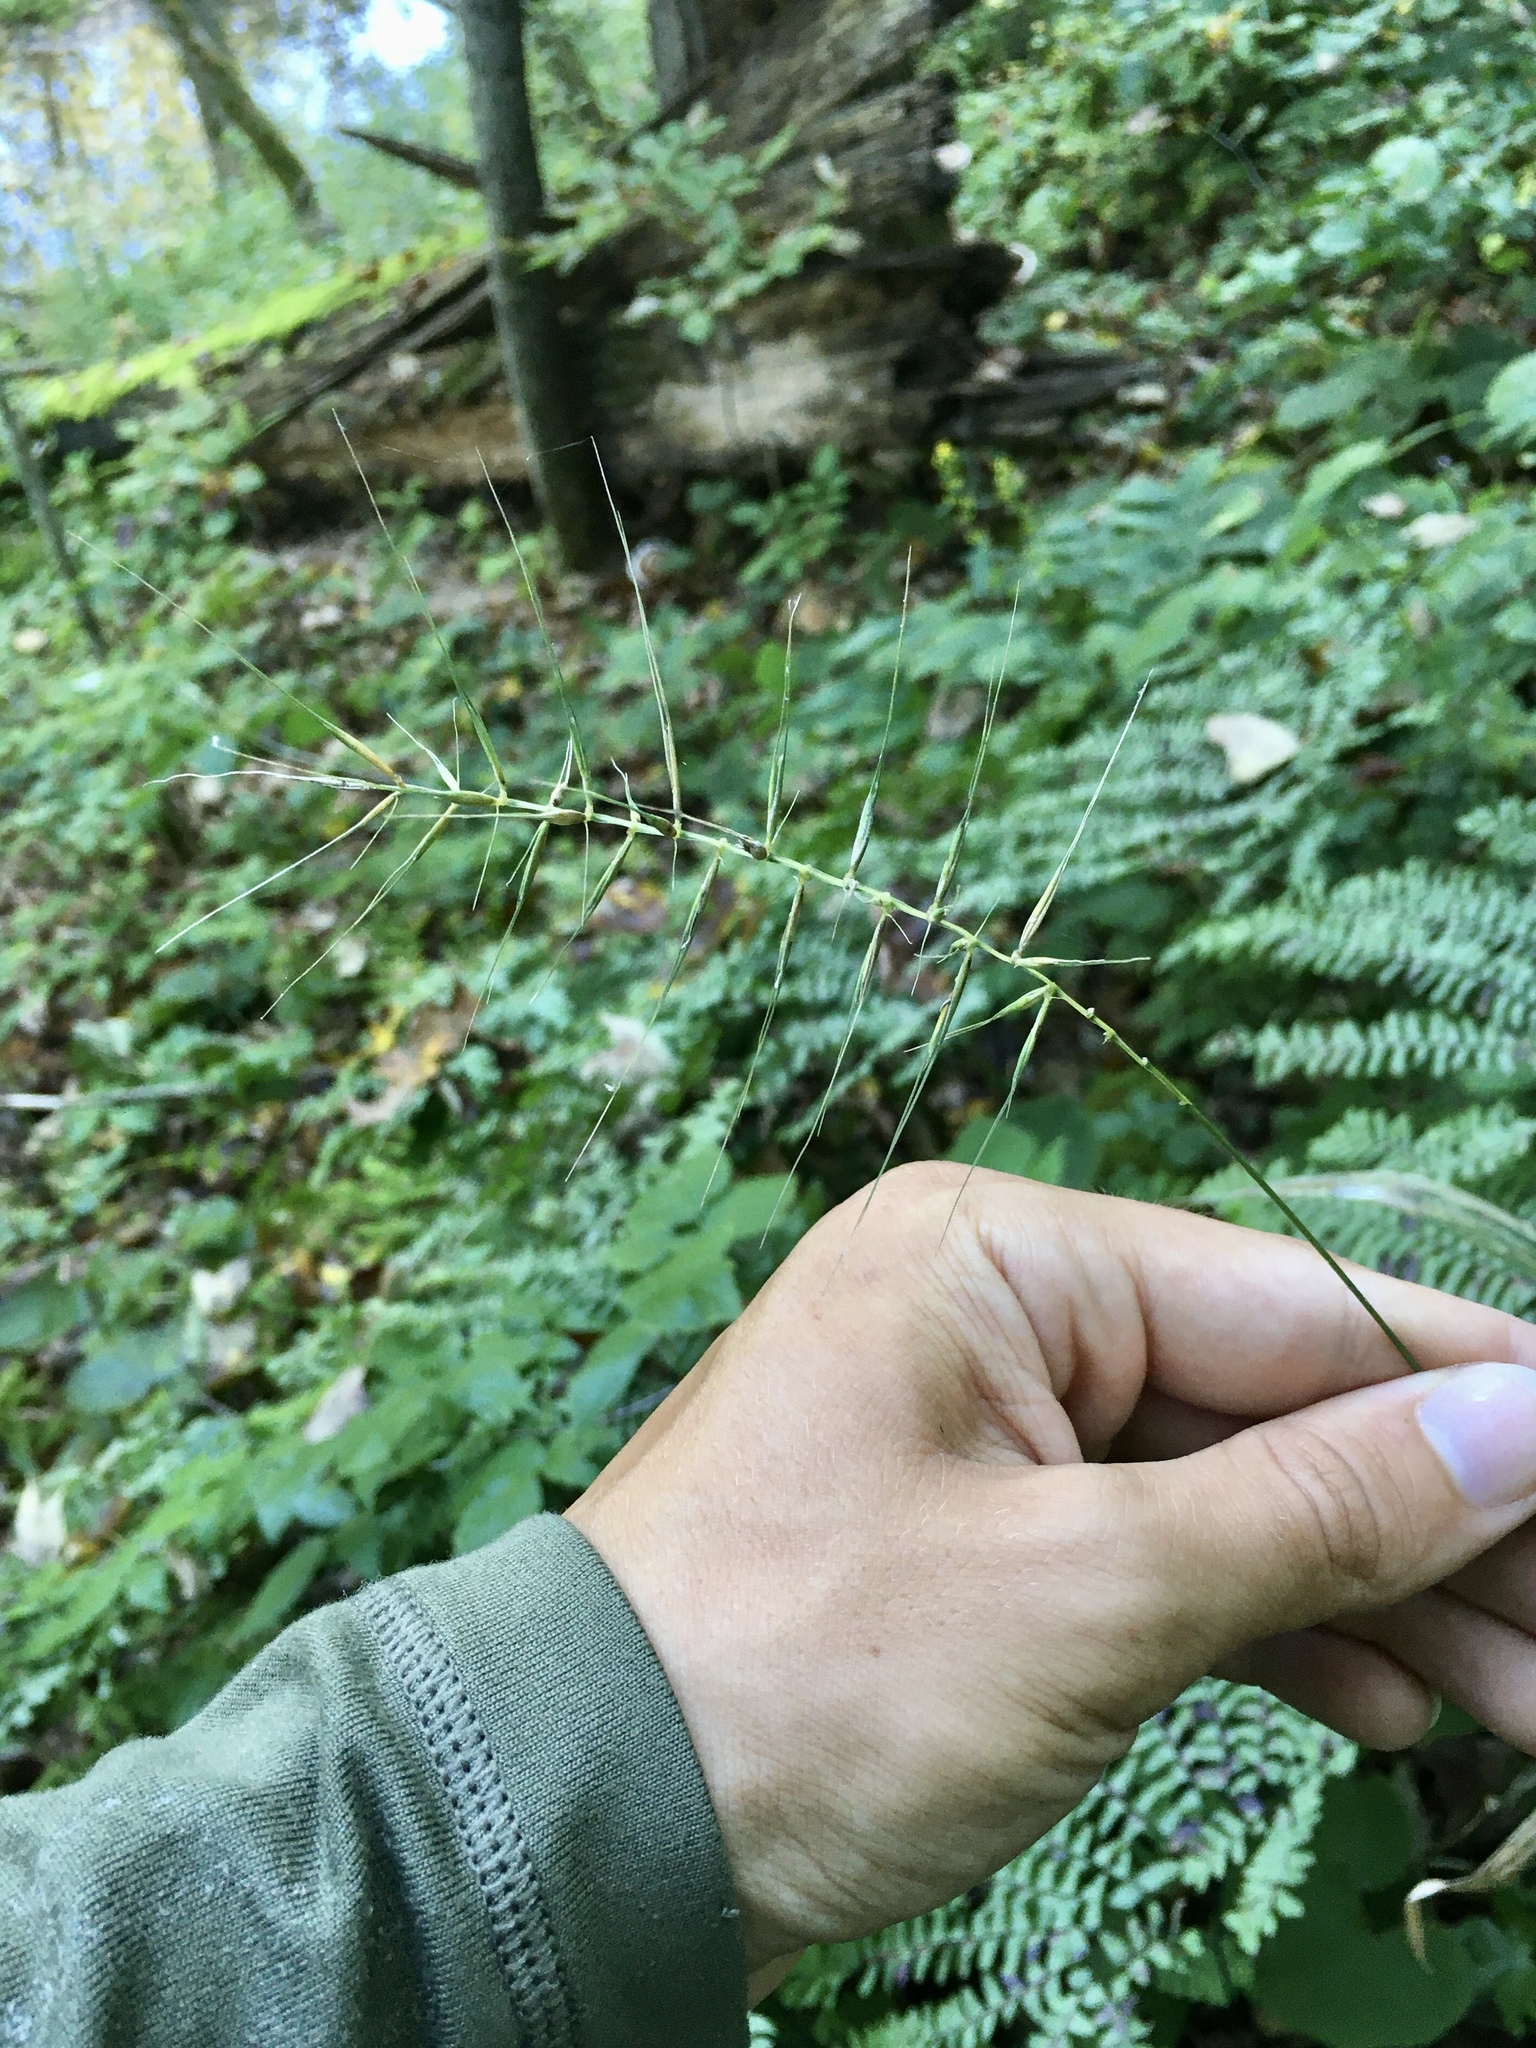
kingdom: Plantae
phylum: Tracheophyta
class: Liliopsida
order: Poales
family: Poaceae
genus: Elymus
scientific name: Elymus hystrix
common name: Bottlebrush grass
